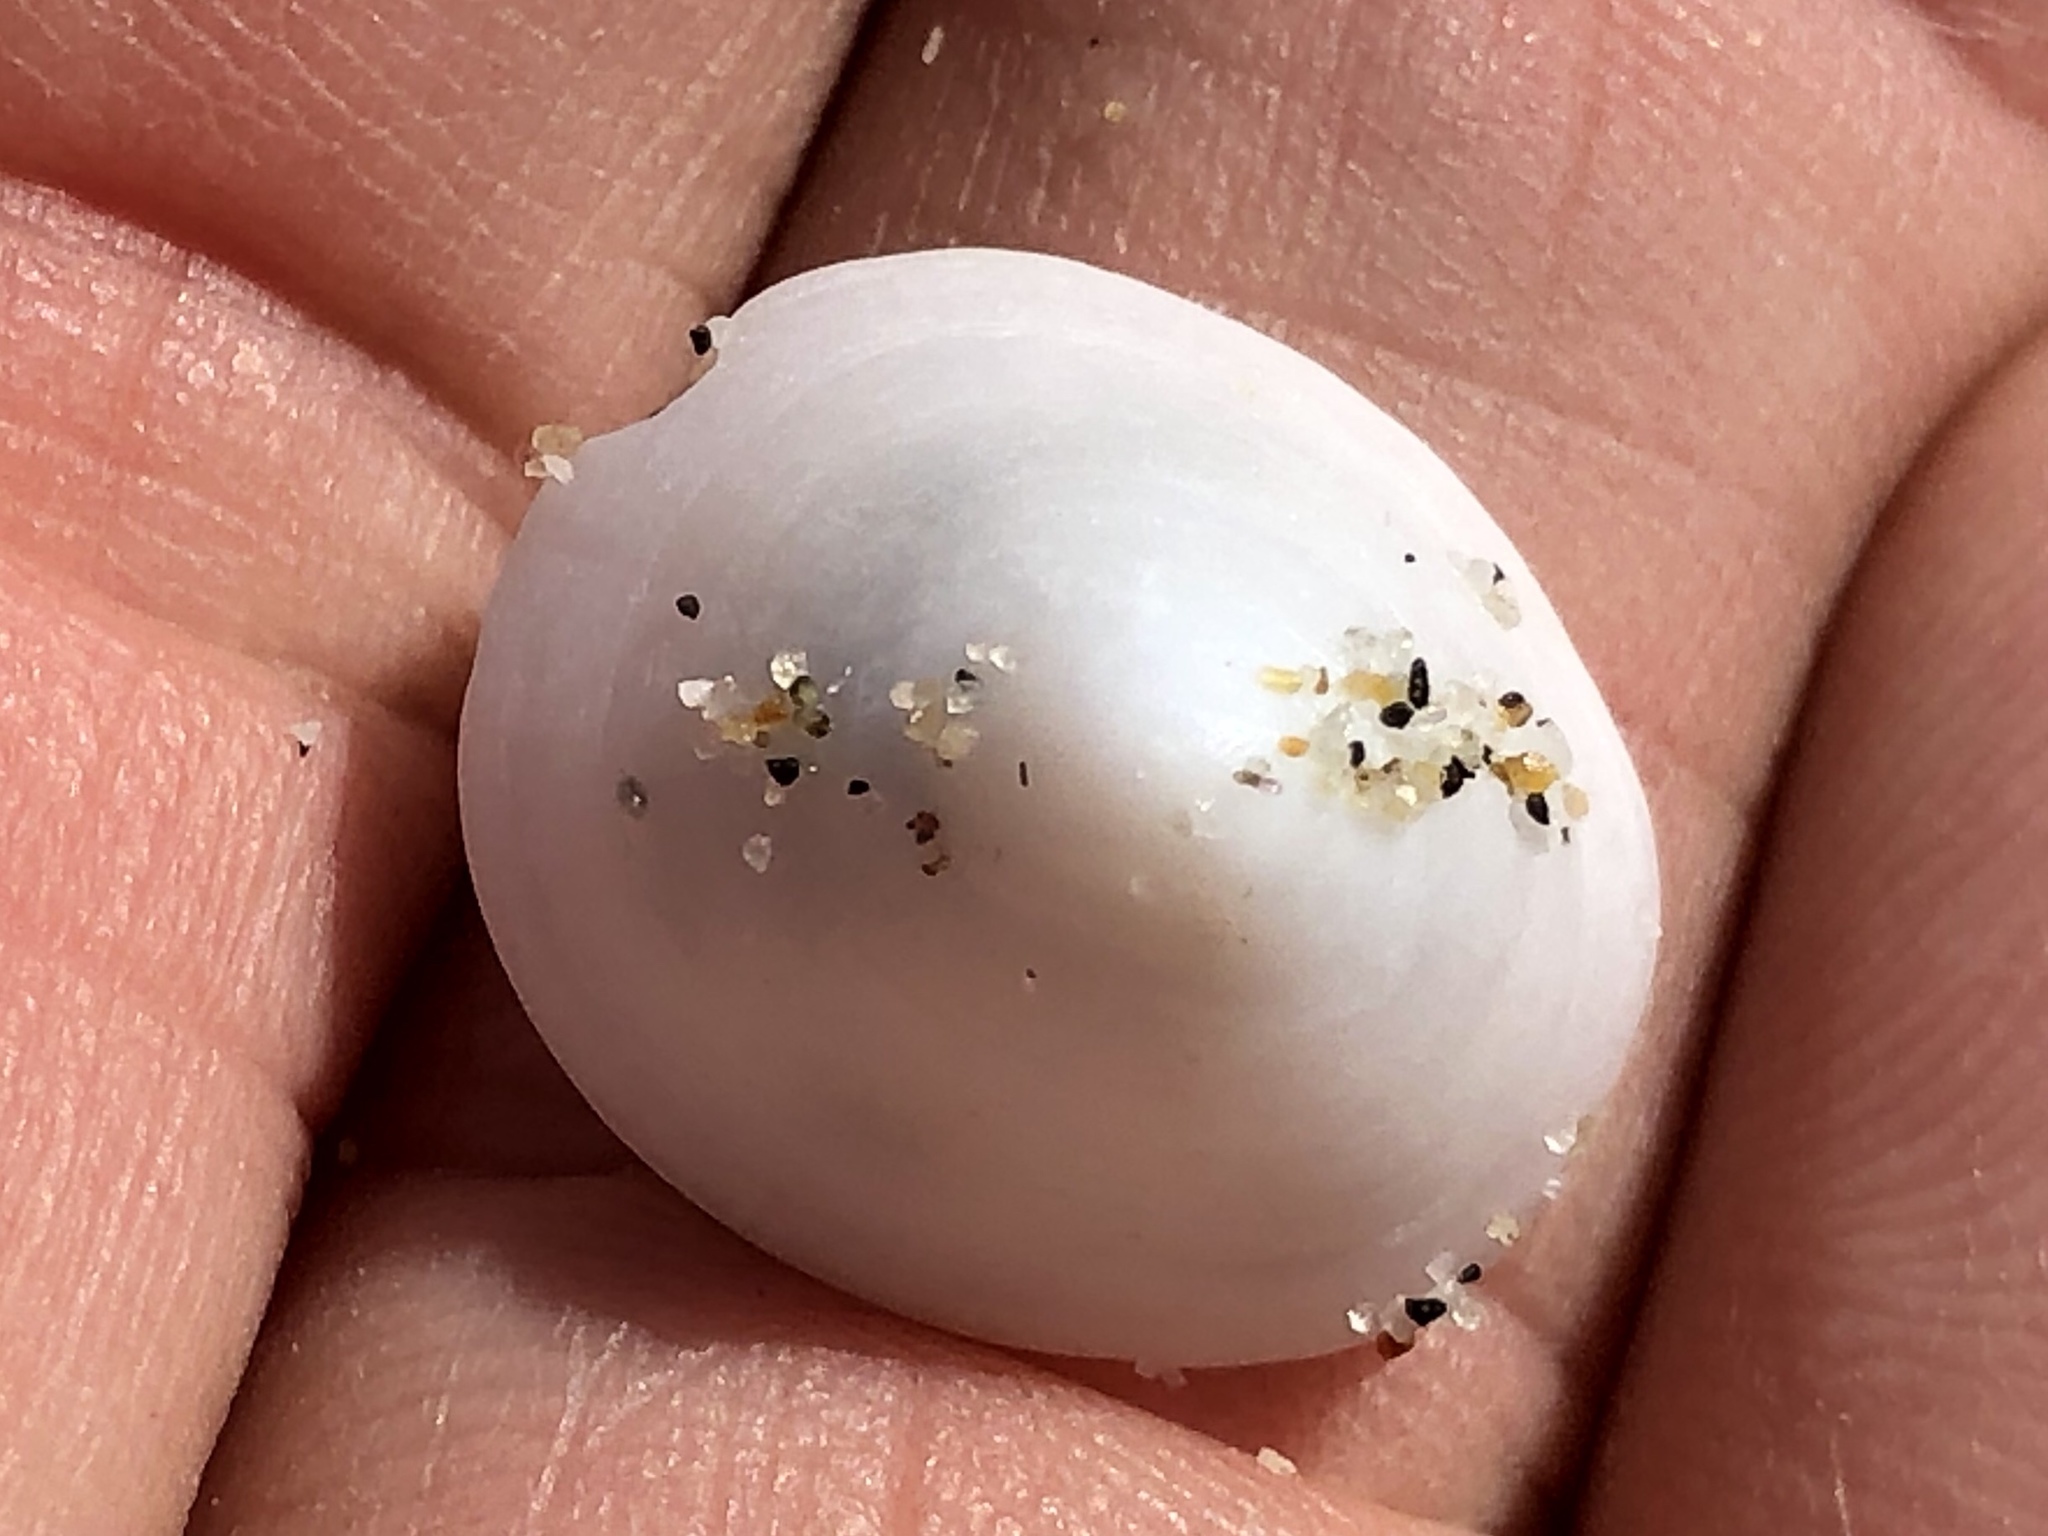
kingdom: Animalia
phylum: Mollusca
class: Gastropoda
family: Acmaeidae
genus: Acmaea
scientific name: Acmaea mitra
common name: Pacific white cap limpet
